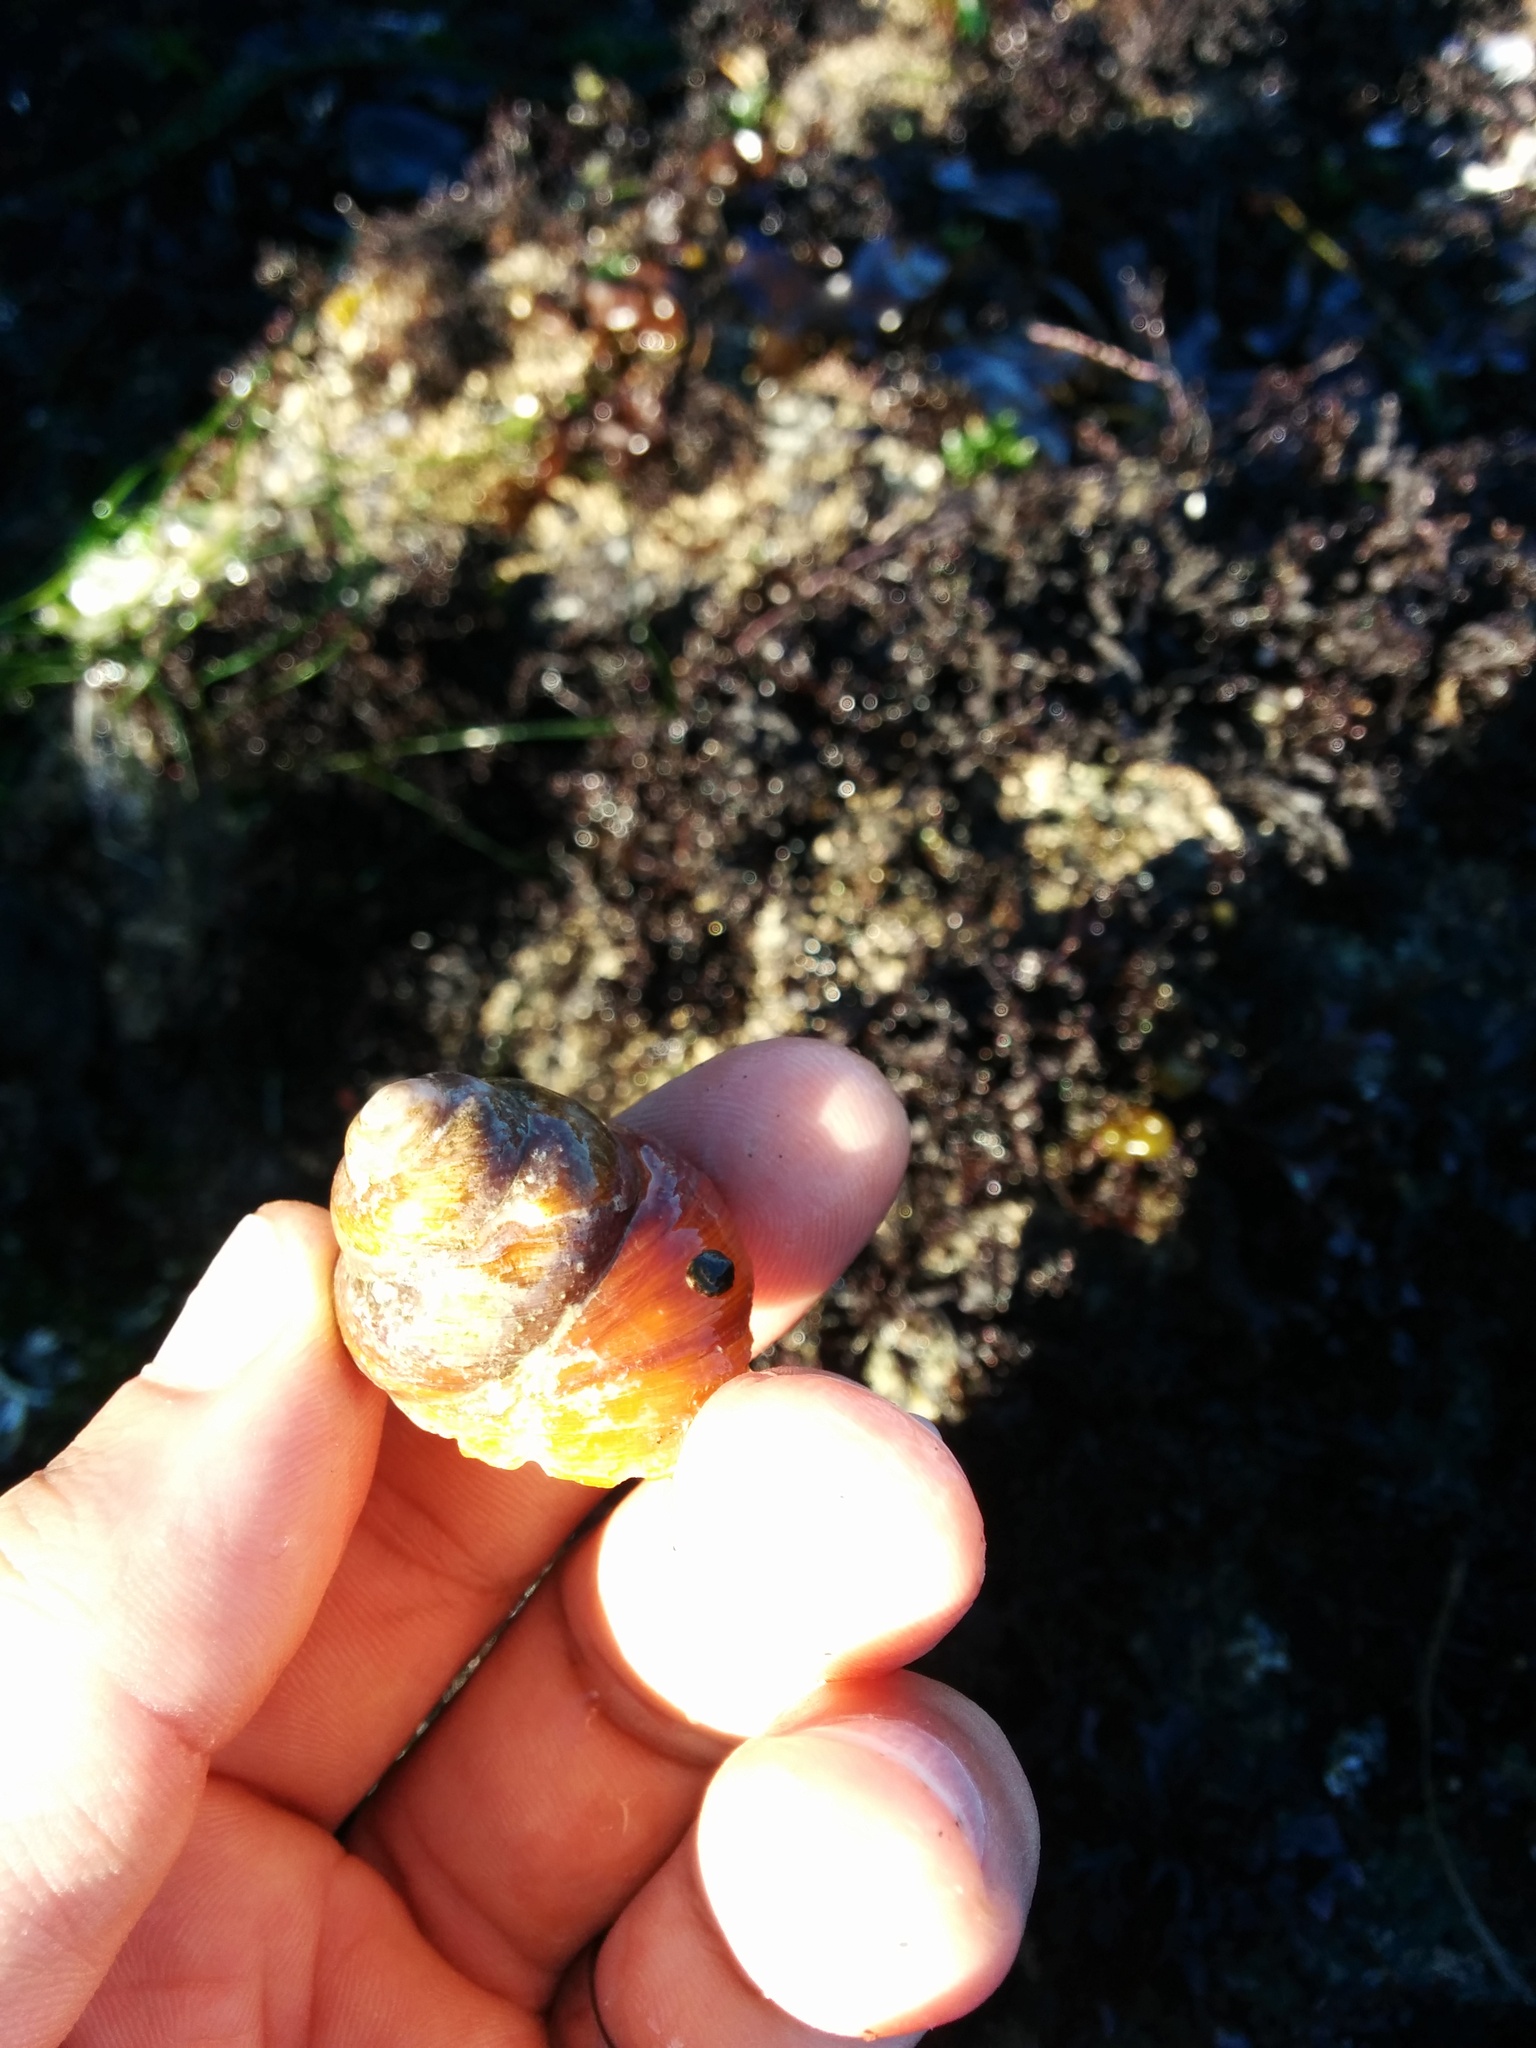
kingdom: Animalia
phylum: Mollusca
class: Gastropoda
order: Trochida
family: Tegulidae
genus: Tegula
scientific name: Tegula brunnea
